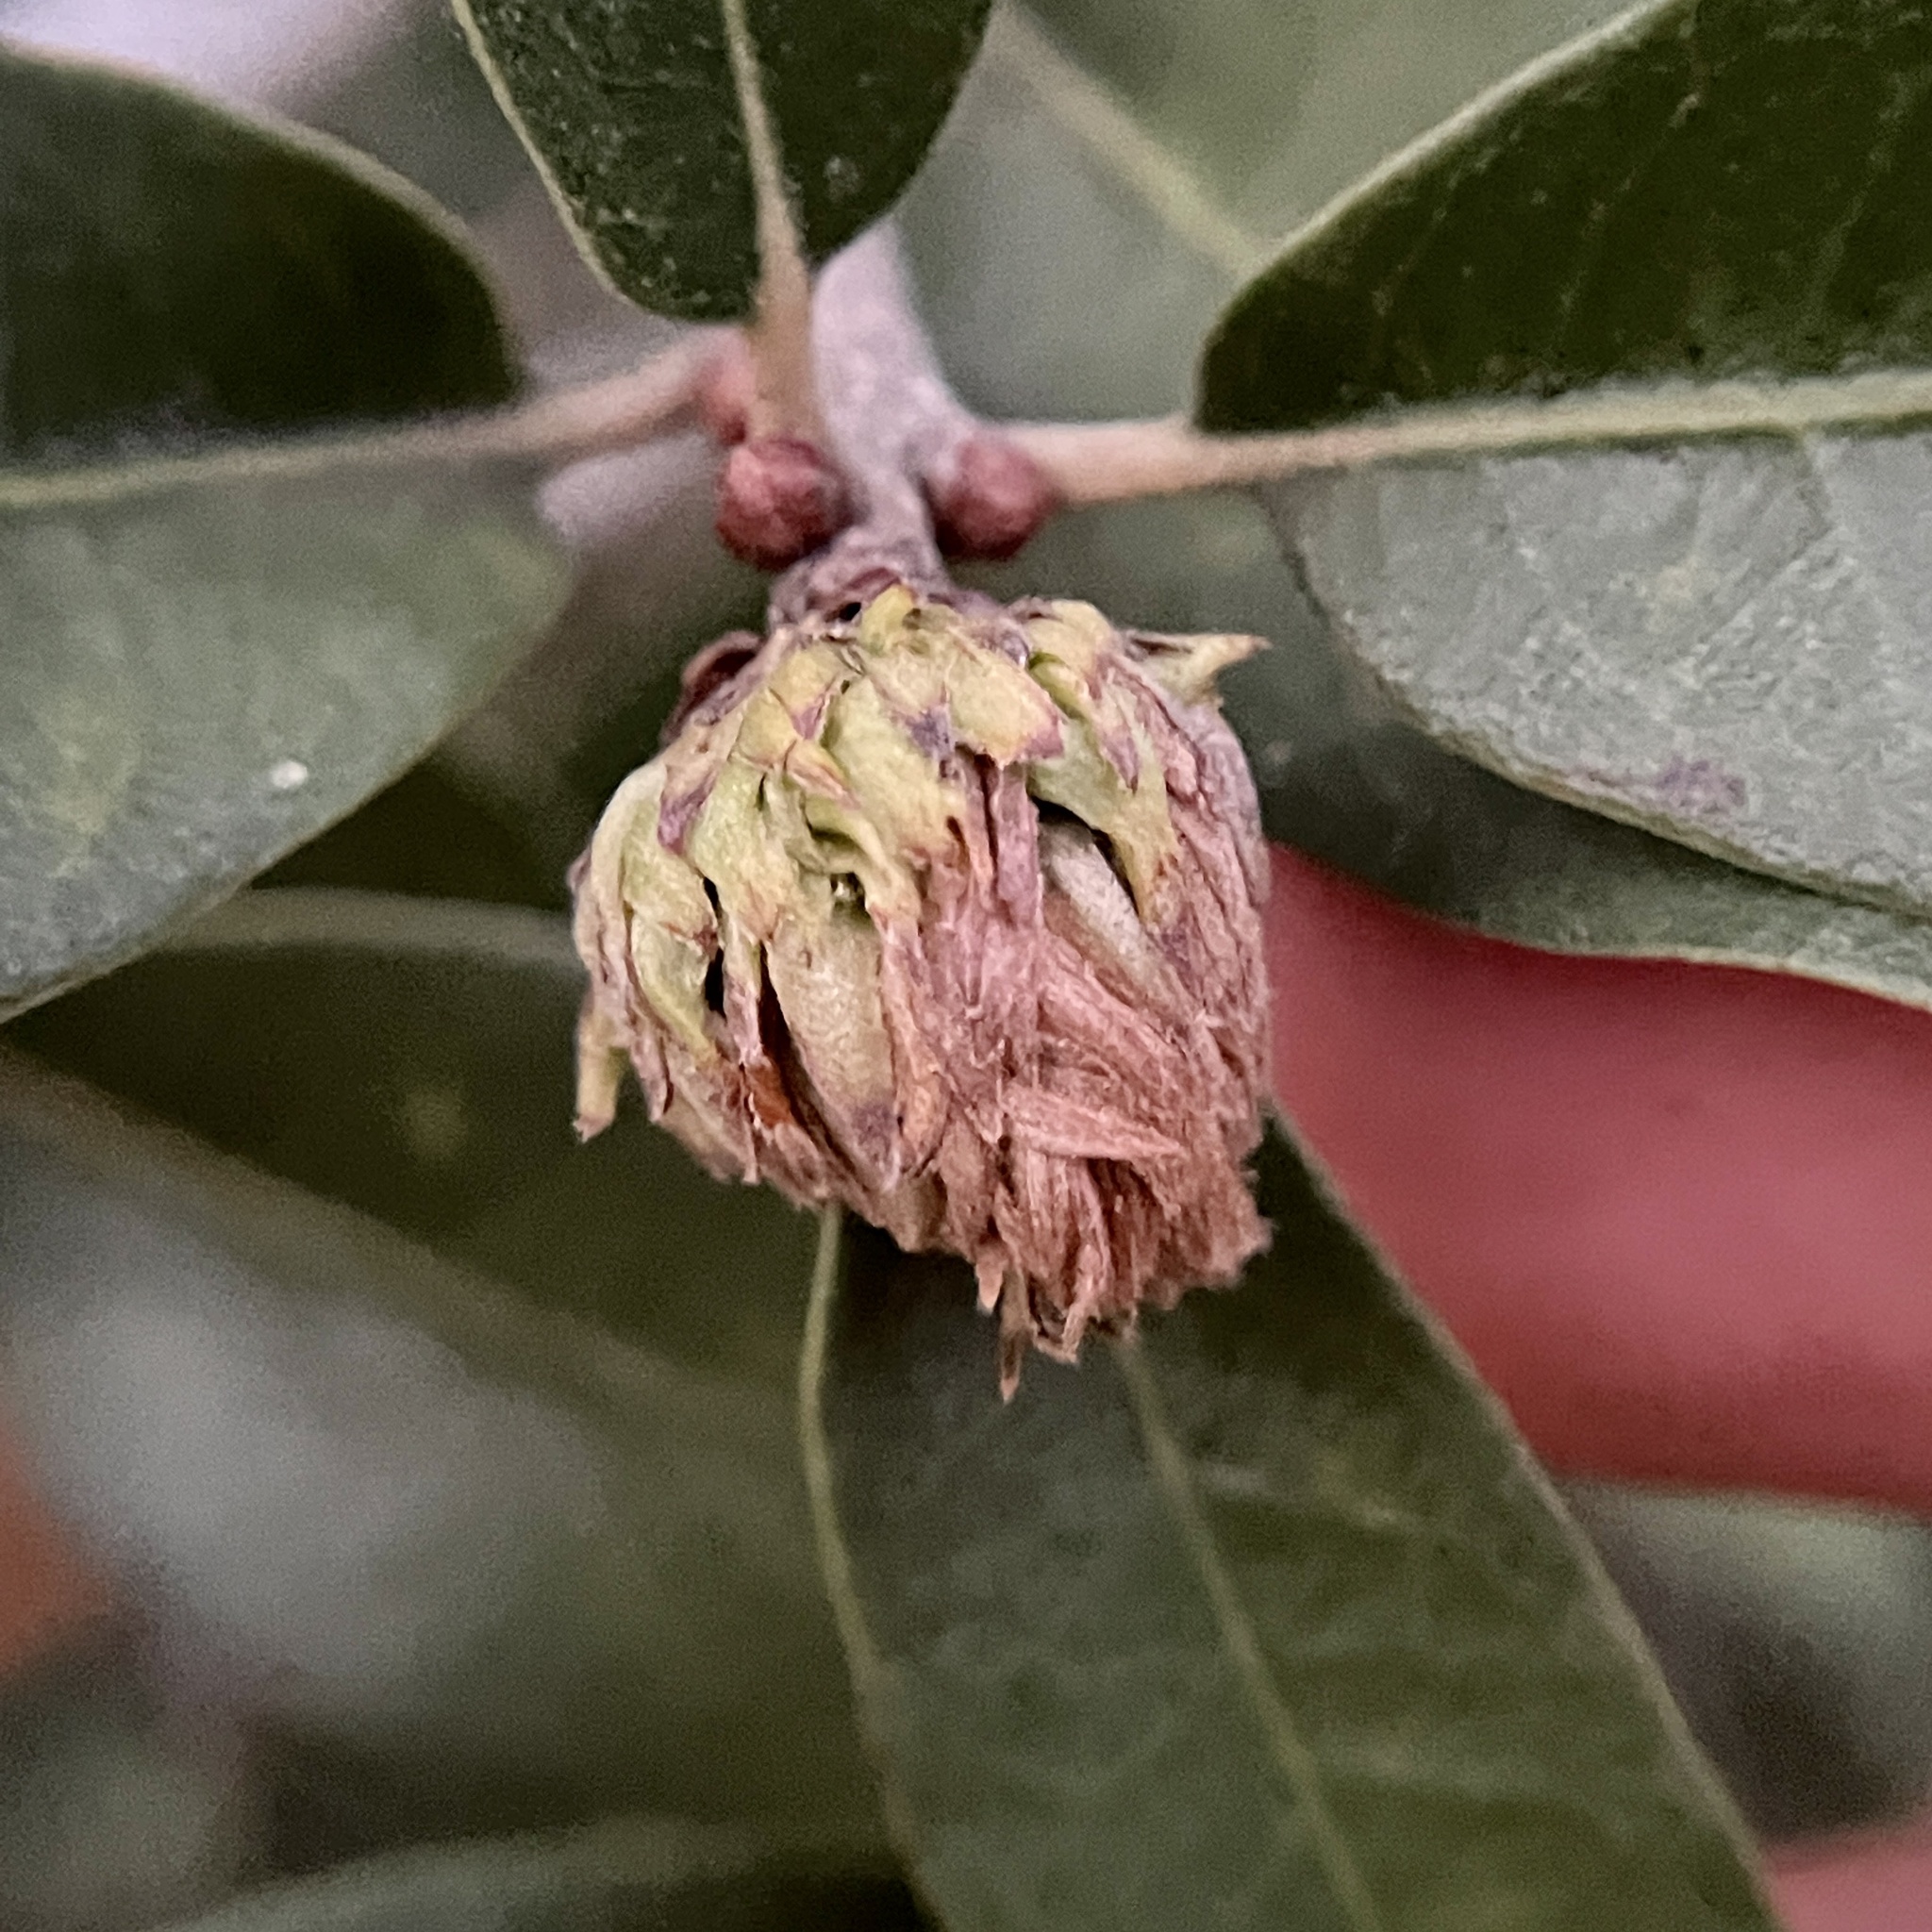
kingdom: Animalia
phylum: Arthropoda
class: Insecta
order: Hymenoptera
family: Cynipidae
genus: Andricus
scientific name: Andricus quercusfoliatus
